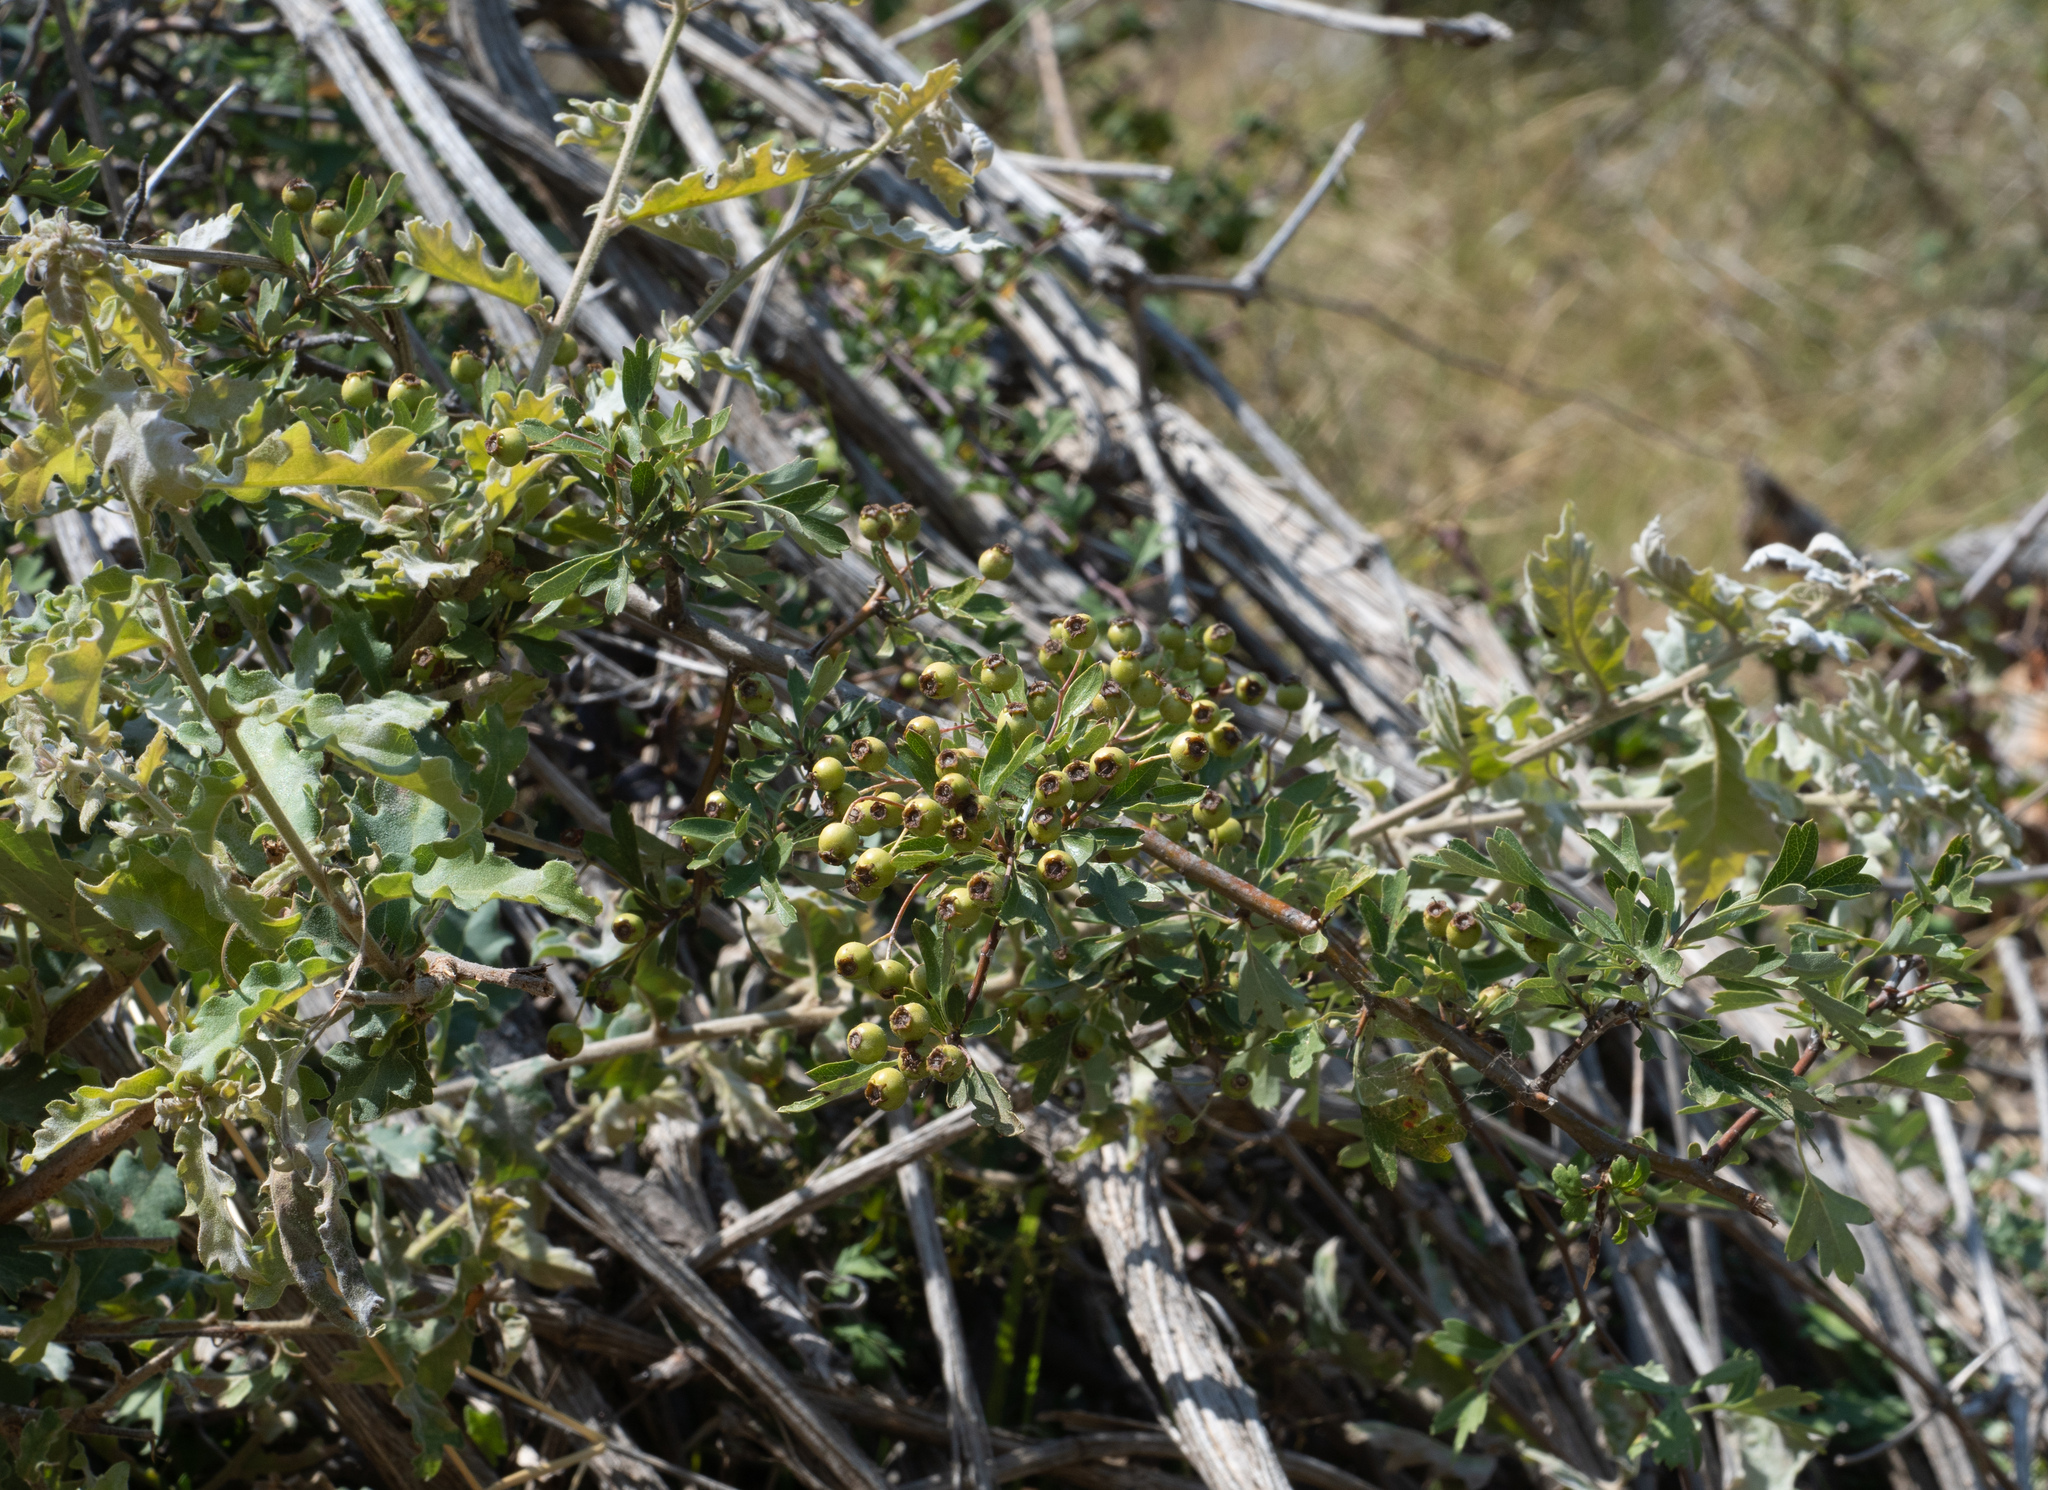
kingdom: Plantae
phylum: Tracheophyta
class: Magnoliopsida
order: Rosales
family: Rosaceae
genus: Crataegus
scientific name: Crataegus monogyna
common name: Hawthorn
